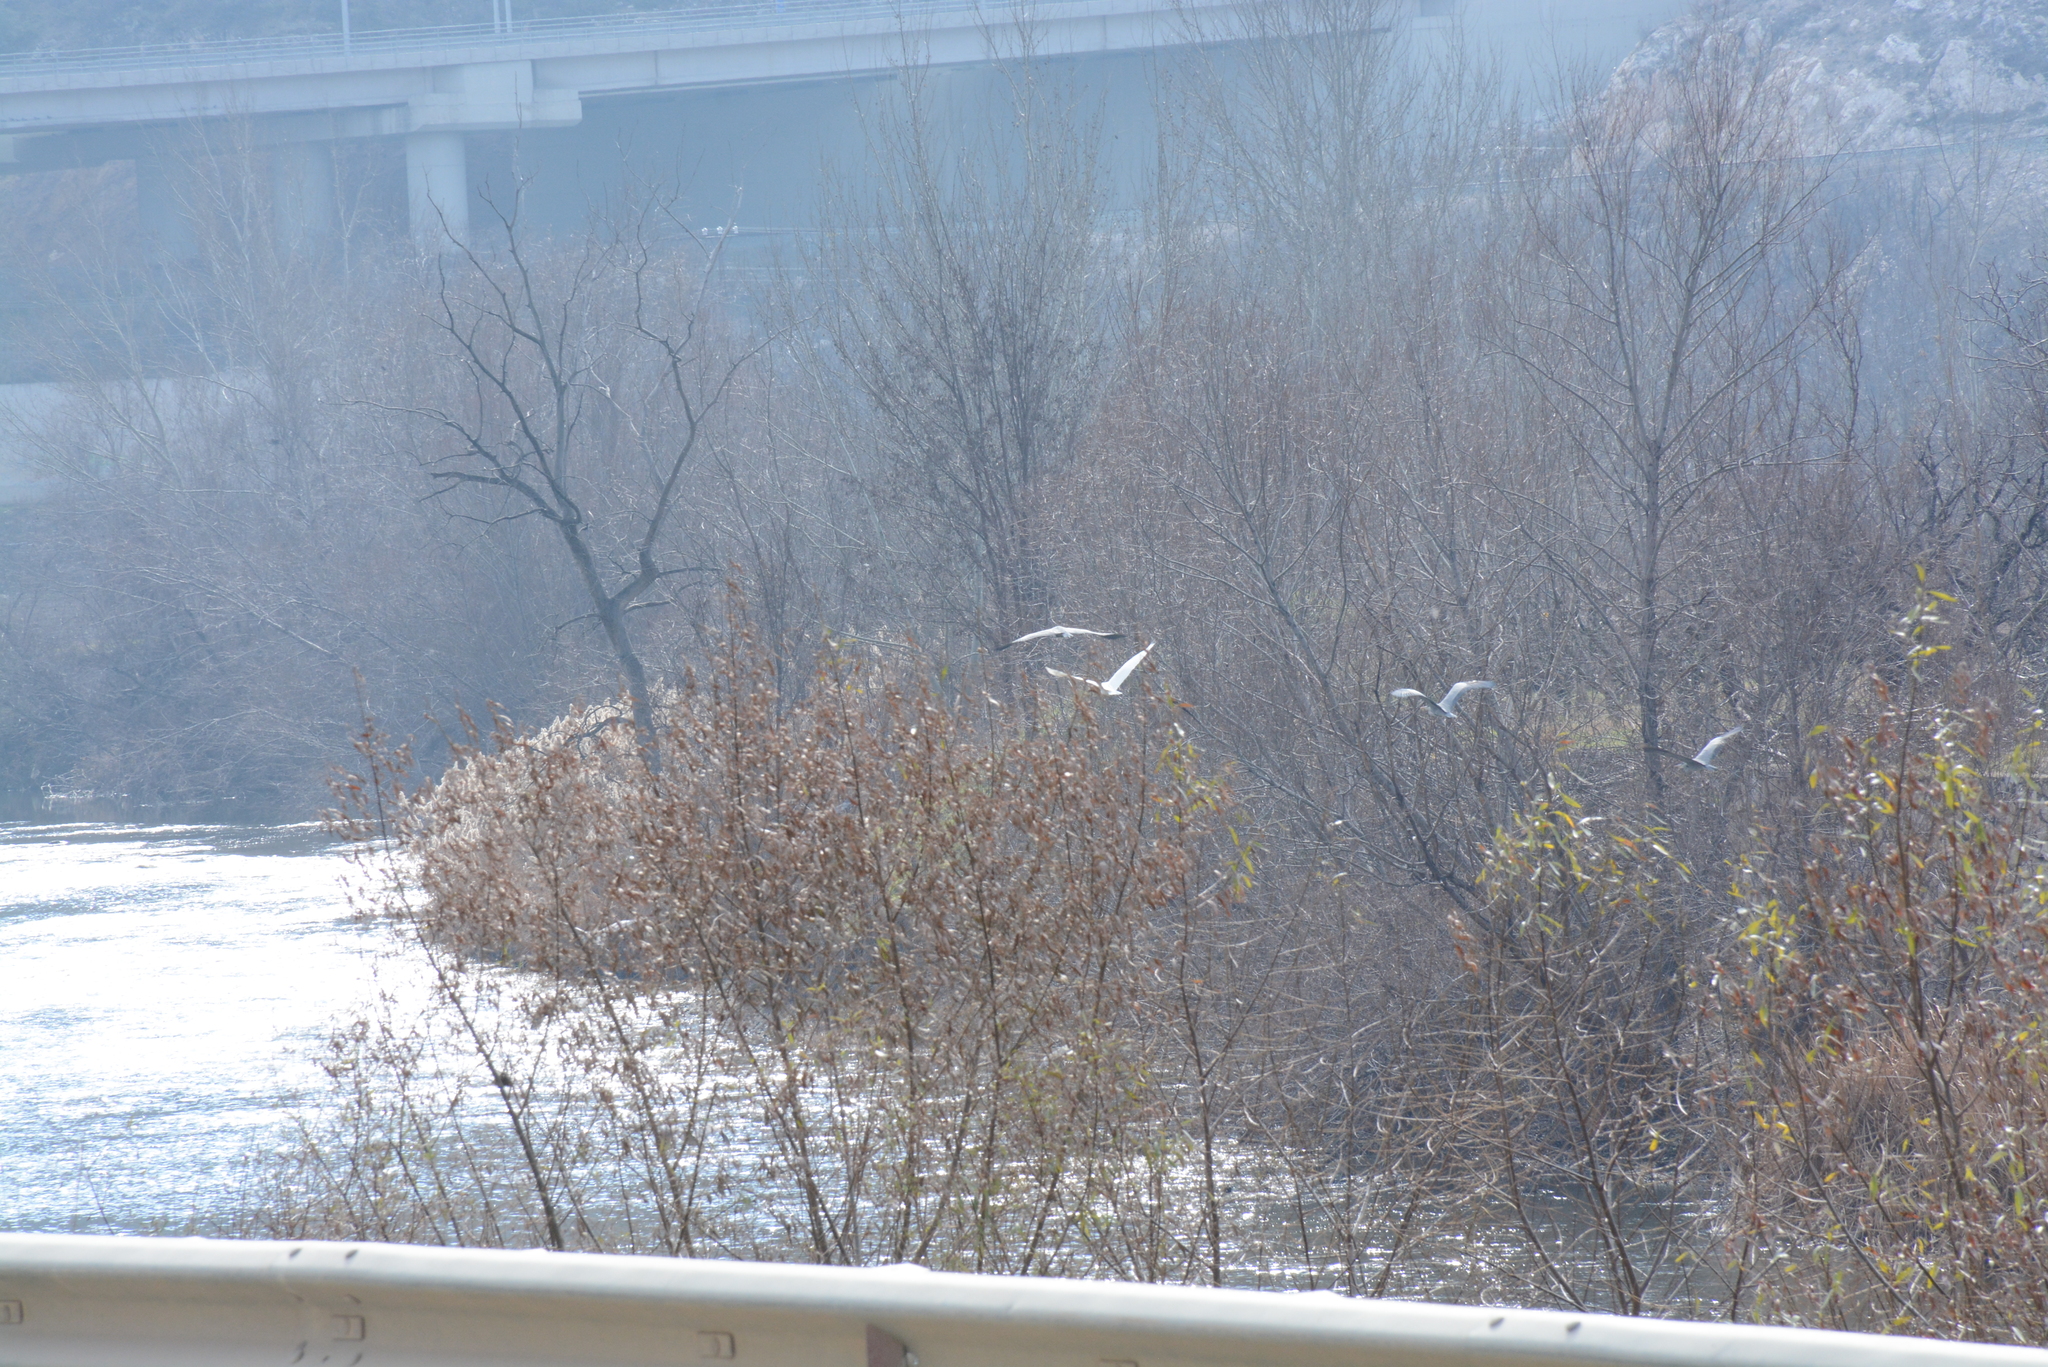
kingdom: Animalia
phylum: Chordata
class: Aves
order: Pelecaniformes
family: Ardeidae
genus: Ardea
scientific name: Ardea cinerea
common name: Grey heron
